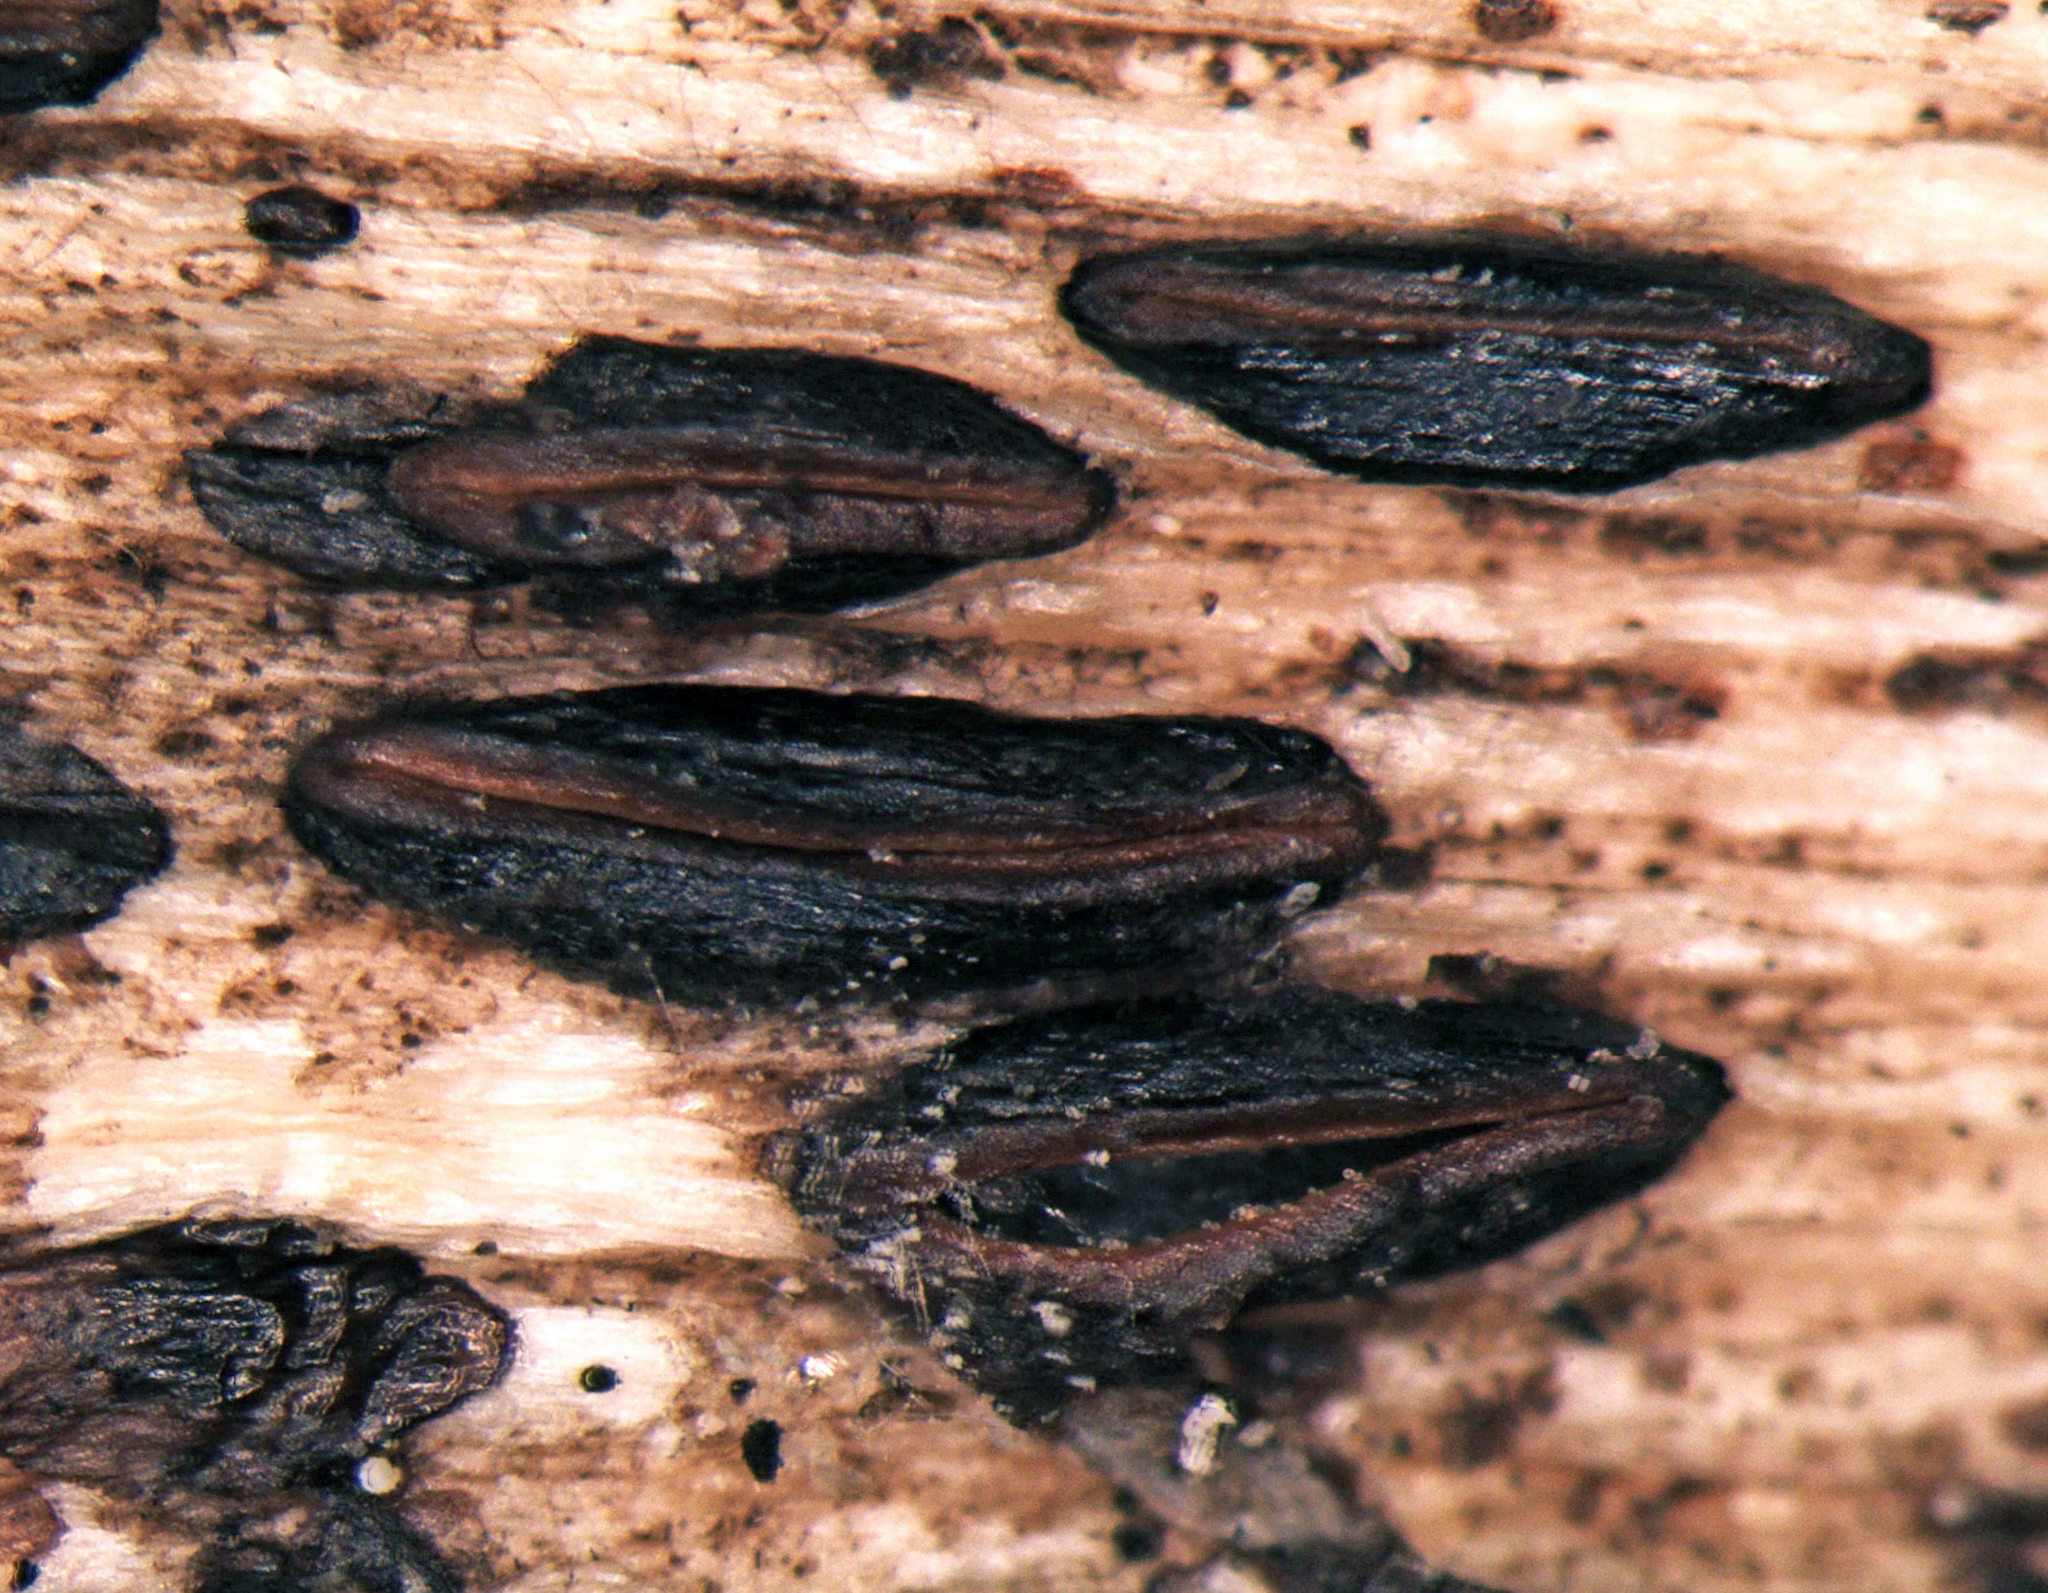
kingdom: Fungi
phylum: Ascomycota
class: Leotiomycetes
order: Rhytismatales
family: Rhytismataceae
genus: Hypoderma
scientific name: Hypoderma cordylines
